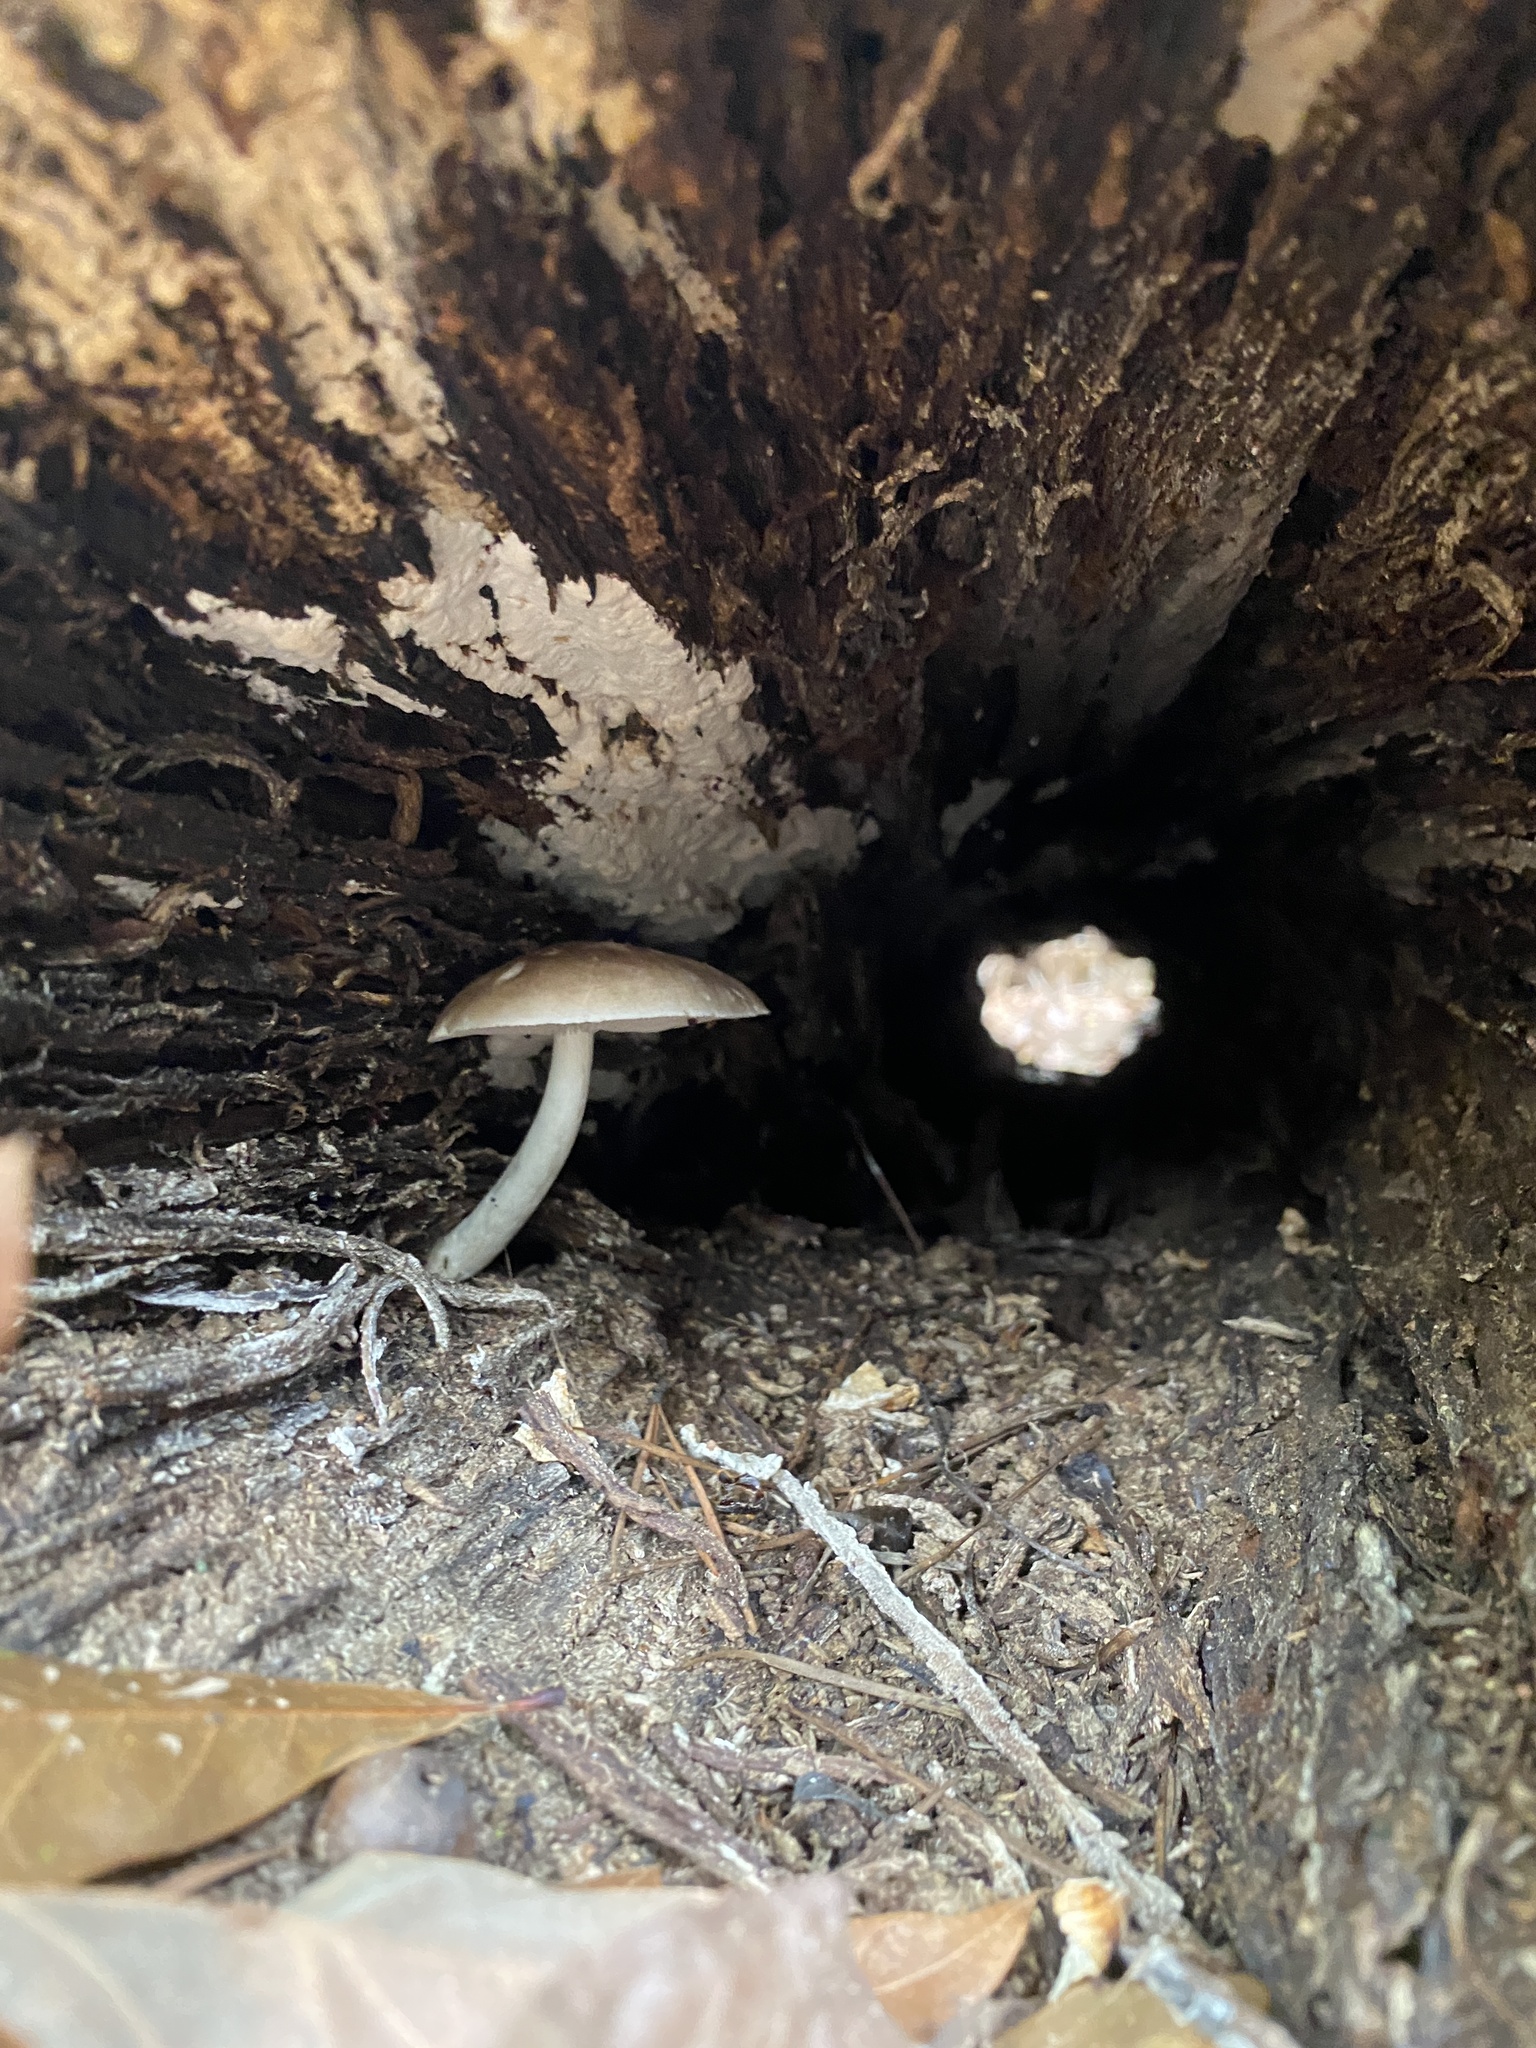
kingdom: Fungi
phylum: Basidiomycota
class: Agaricomycetes
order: Agaricales
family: Pluteaceae
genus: Pluteus
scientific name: Pluteus cervinus
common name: Deer shield
